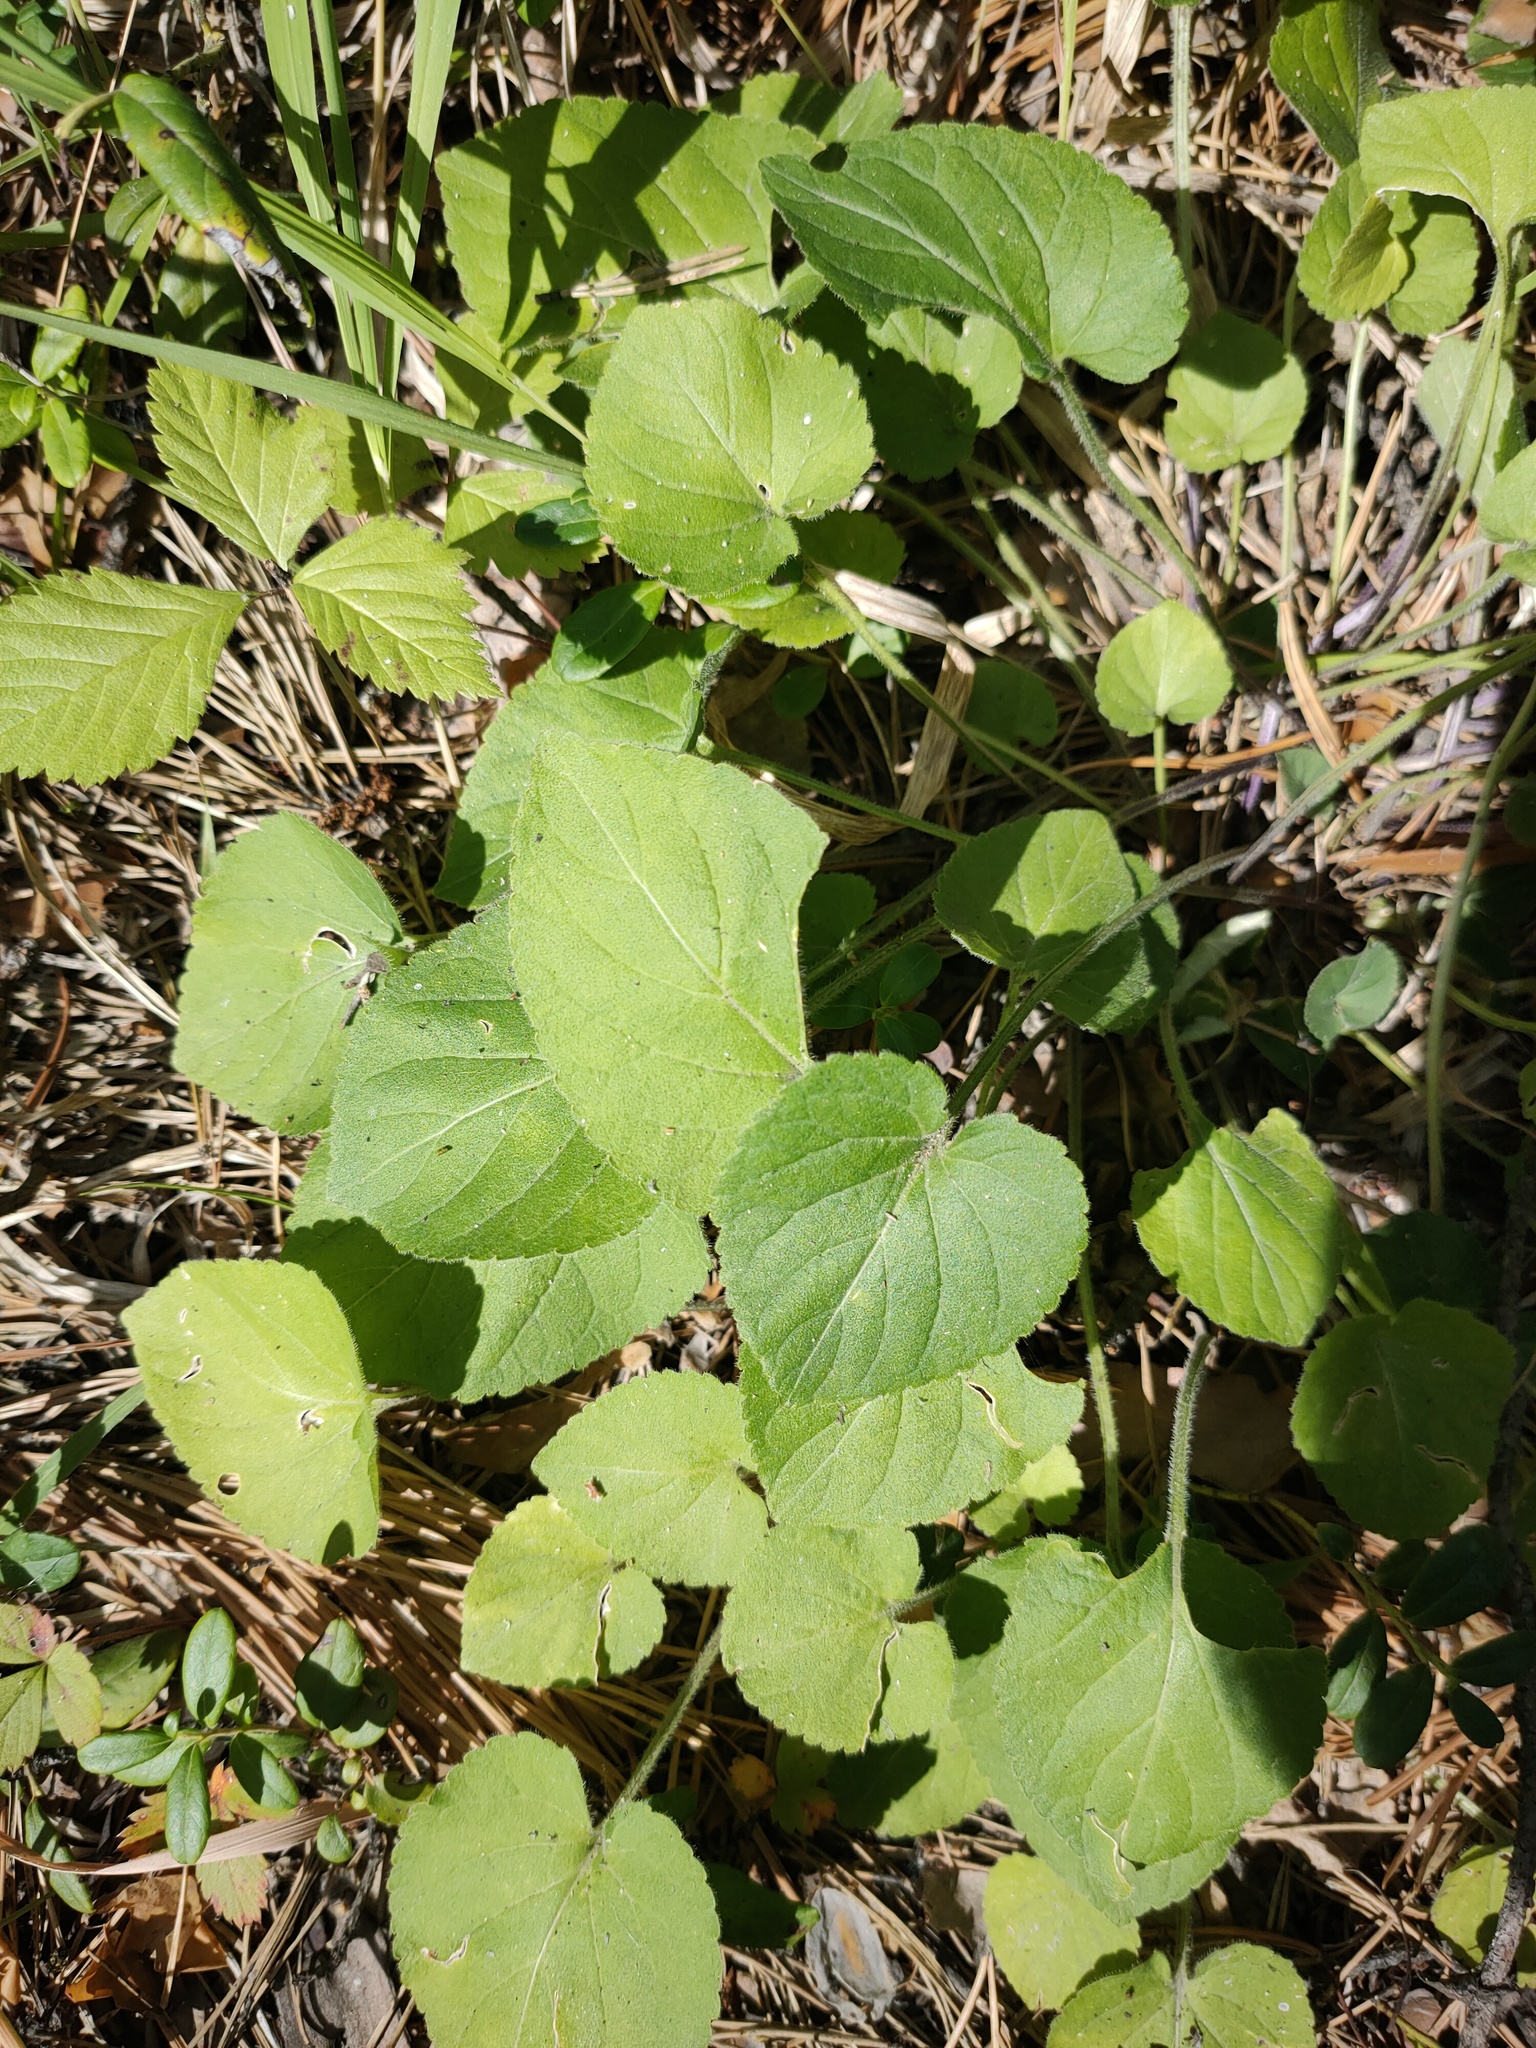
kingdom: Plantae
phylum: Tracheophyta
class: Magnoliopsida
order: Malpighiales
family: Violaceae
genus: Viola
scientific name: Viola collina
